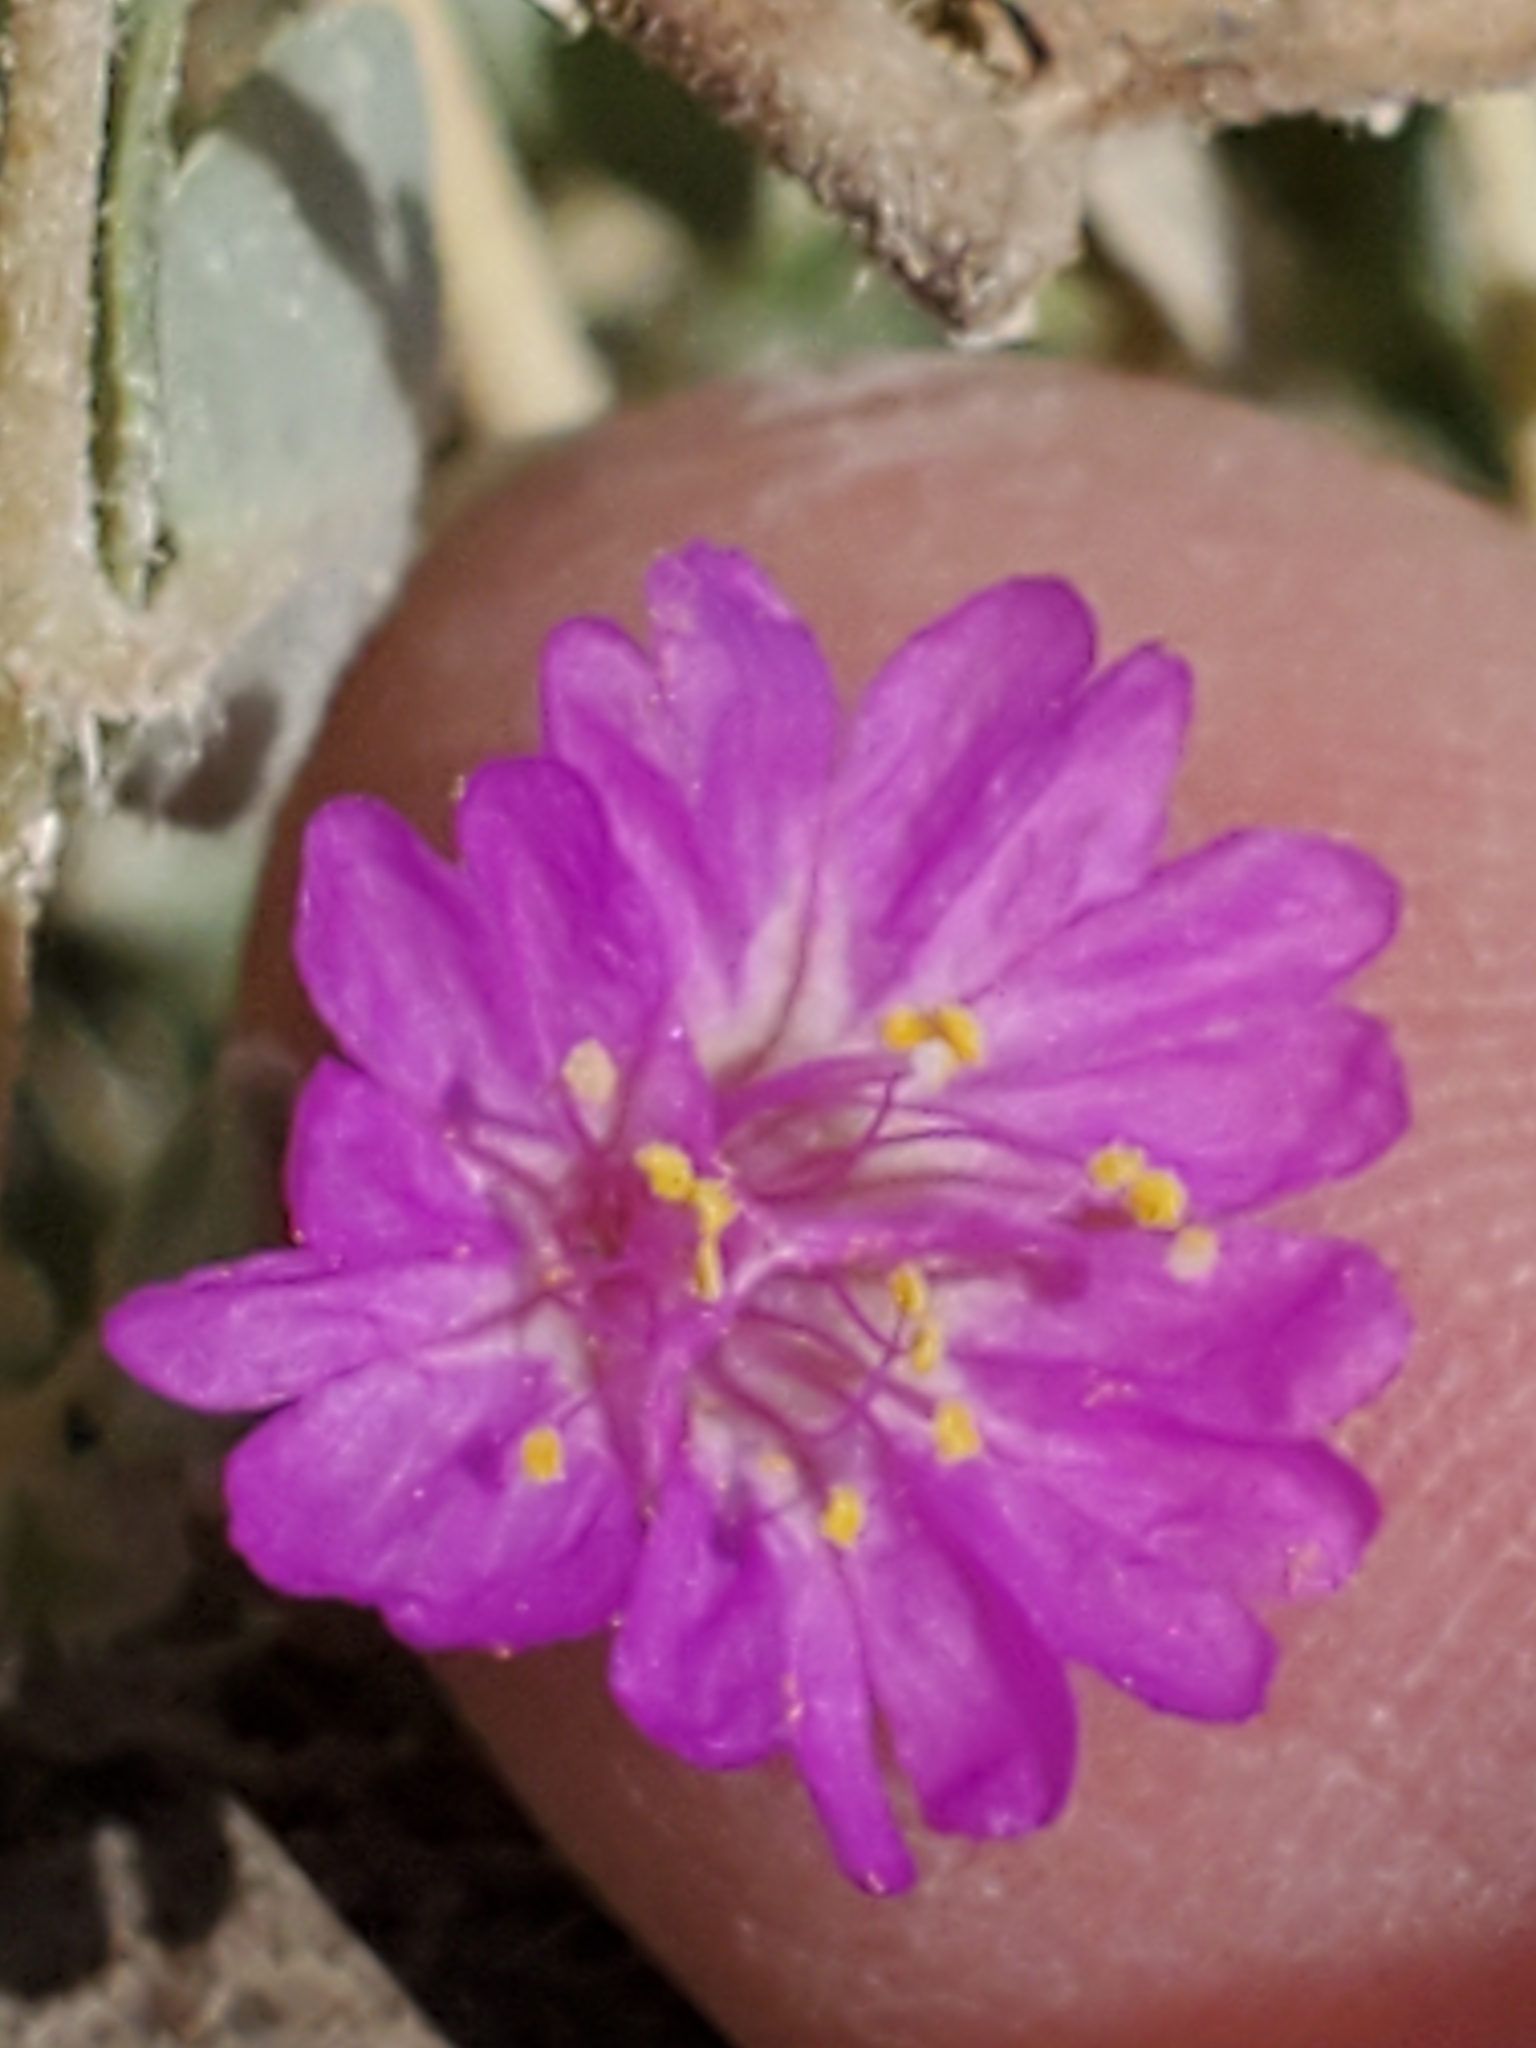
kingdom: Plantae
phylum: Tracheophyta
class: Magnoliopsida
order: Caryophyllales
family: Nyctaginaceae
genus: Allionia
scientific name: Allionia incarnata
